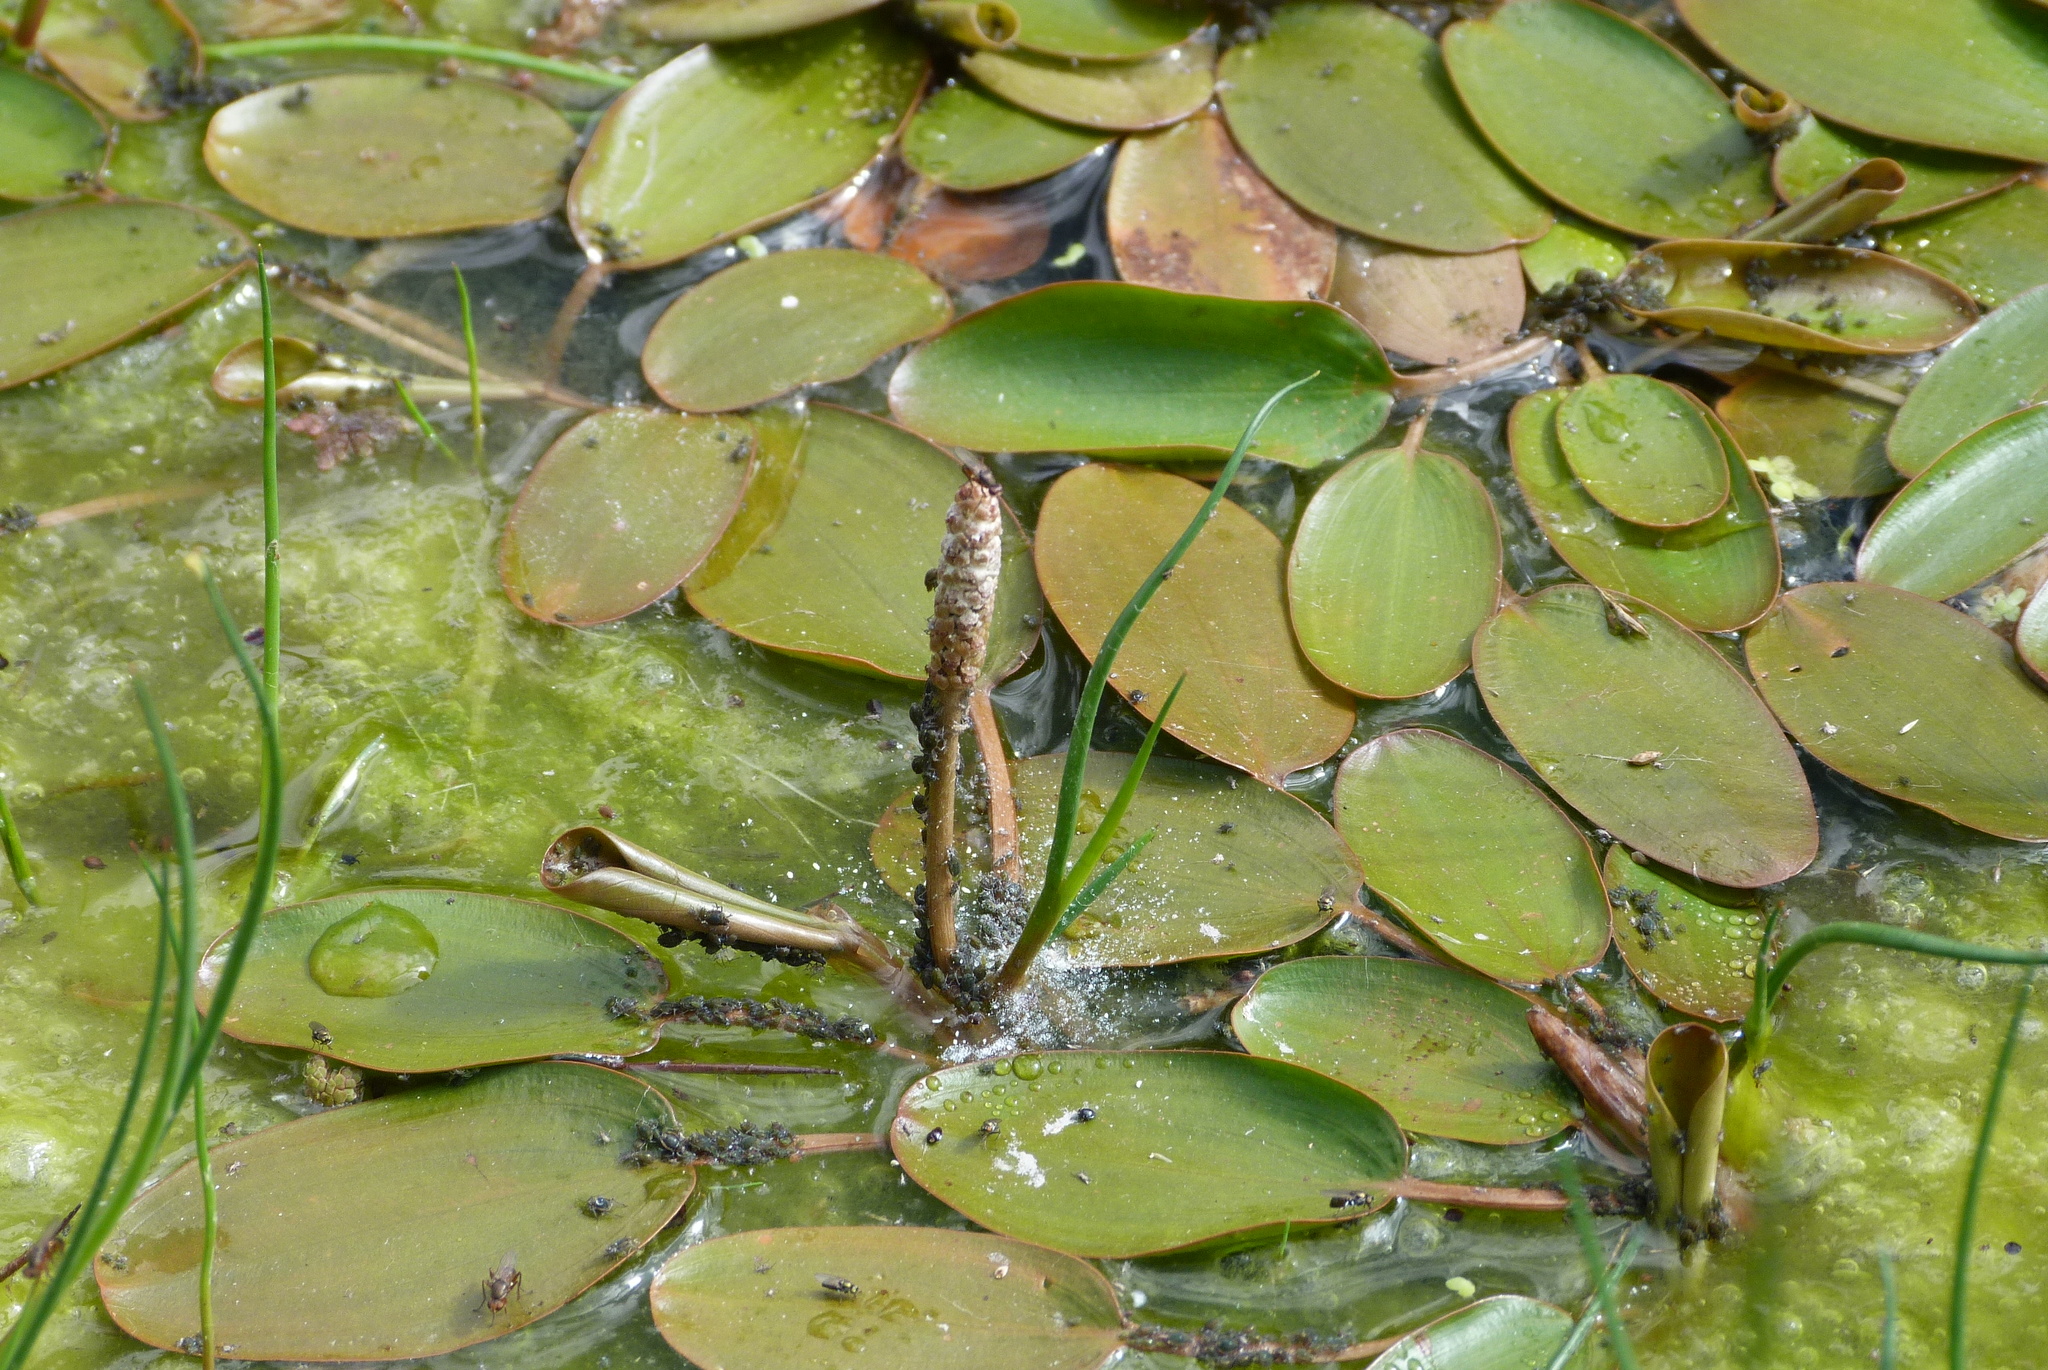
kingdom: Plantae
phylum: Tracheophyta
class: Liliopsida
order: Alismatales
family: Potamogetonaceae
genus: Potamogeton
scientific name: Potamogeton cheesemanii
